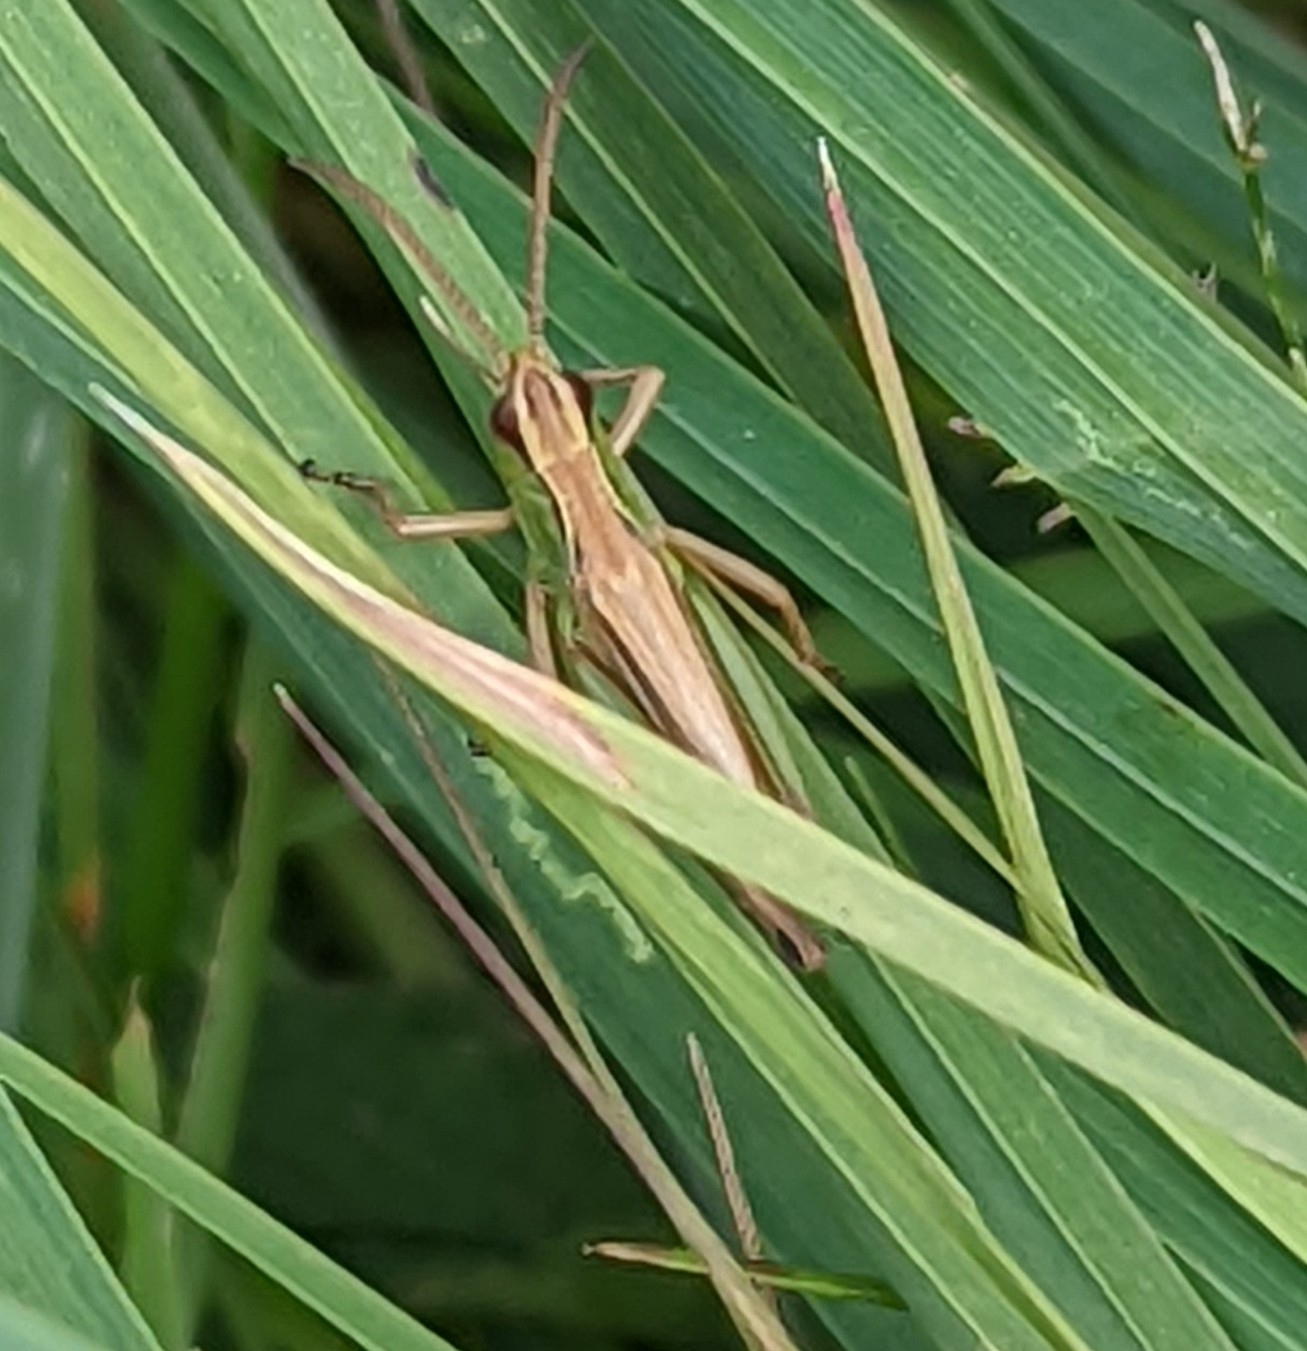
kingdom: Animalia
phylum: Arthropoda
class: Insecta
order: Orthoptera
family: Acrididae
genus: Pseudochorthippus
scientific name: Pseudochorthippus parallelus
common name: Meadow grasshopper
